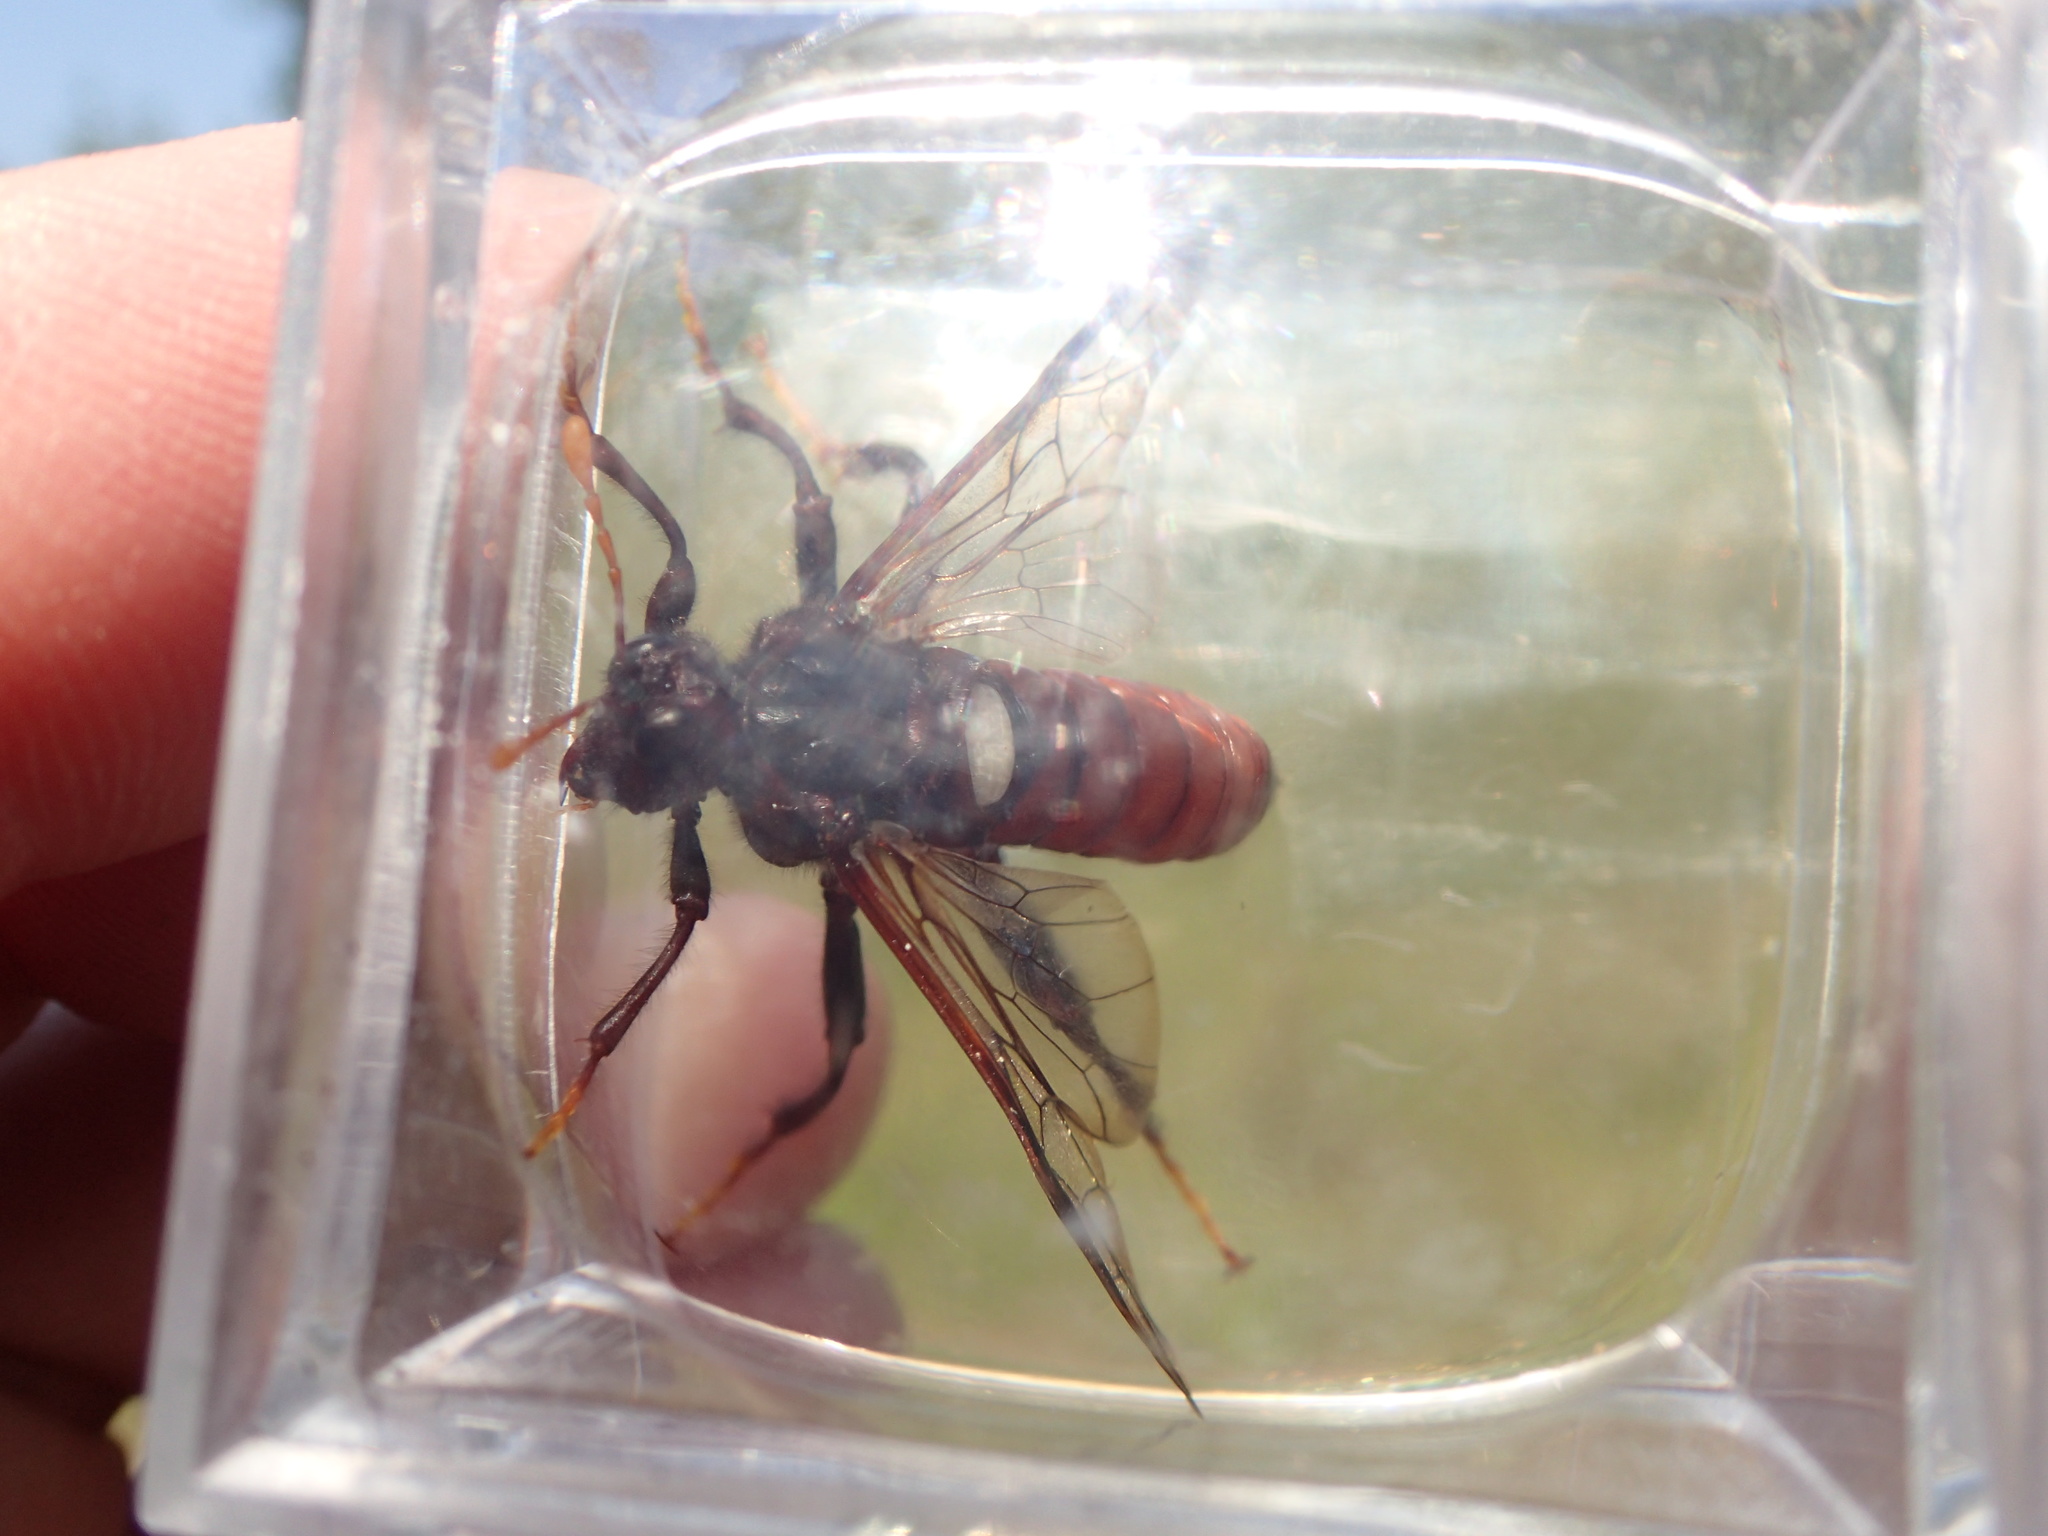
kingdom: Animalia
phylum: Arthropoda
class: Insecta
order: Hymenoptera
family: Cimbicidae
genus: Cimbex
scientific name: Cimbex americana
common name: Elm sawfly
